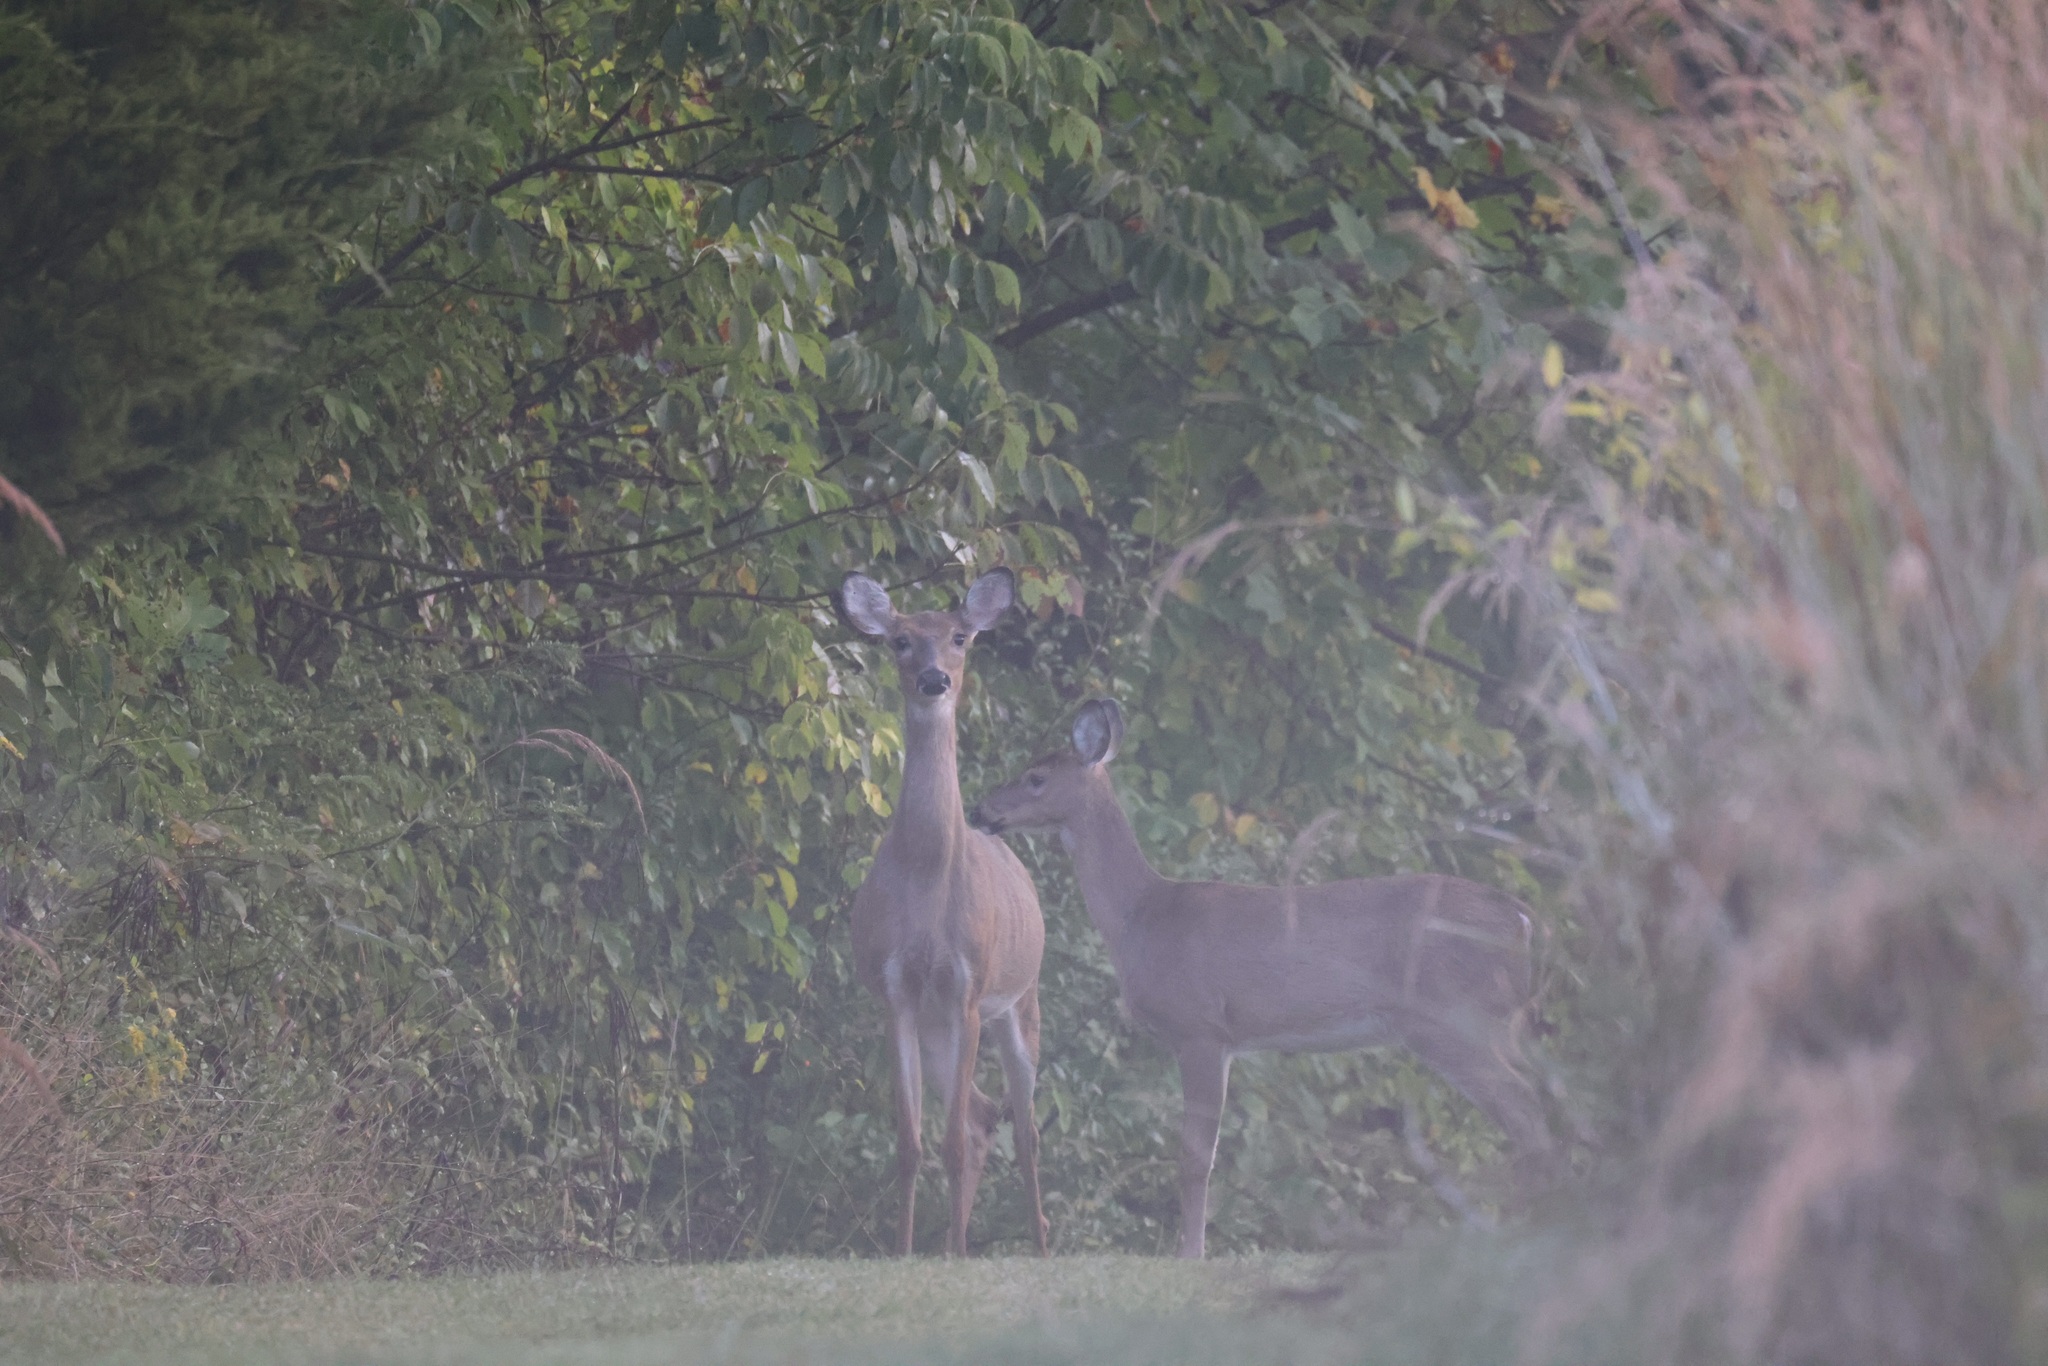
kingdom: Animalia
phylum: Chordata
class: Mammalia
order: Artiodactyla
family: Cervidae
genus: Odocoileus
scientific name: Odocoileus virginianus
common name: White-tailed deer
